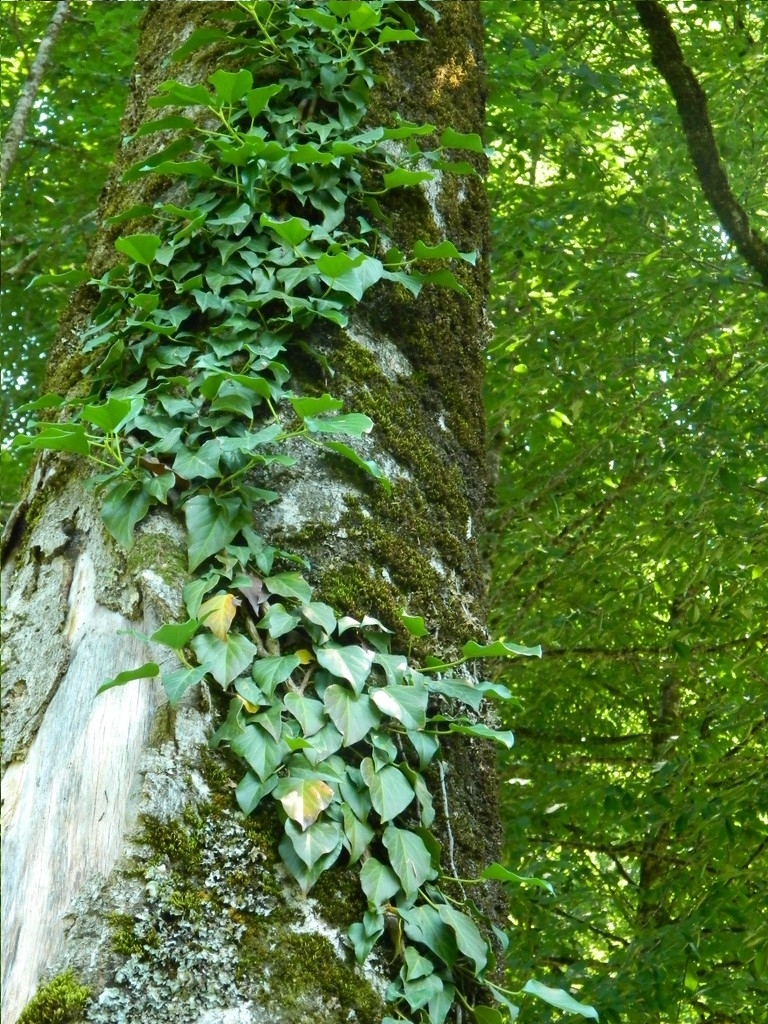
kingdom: Plantae
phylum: Tracheophyta
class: Magnoliopsida
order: Apiales
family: Araliaceae
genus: Hedera
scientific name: Hedera colchica
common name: Persian ivy
